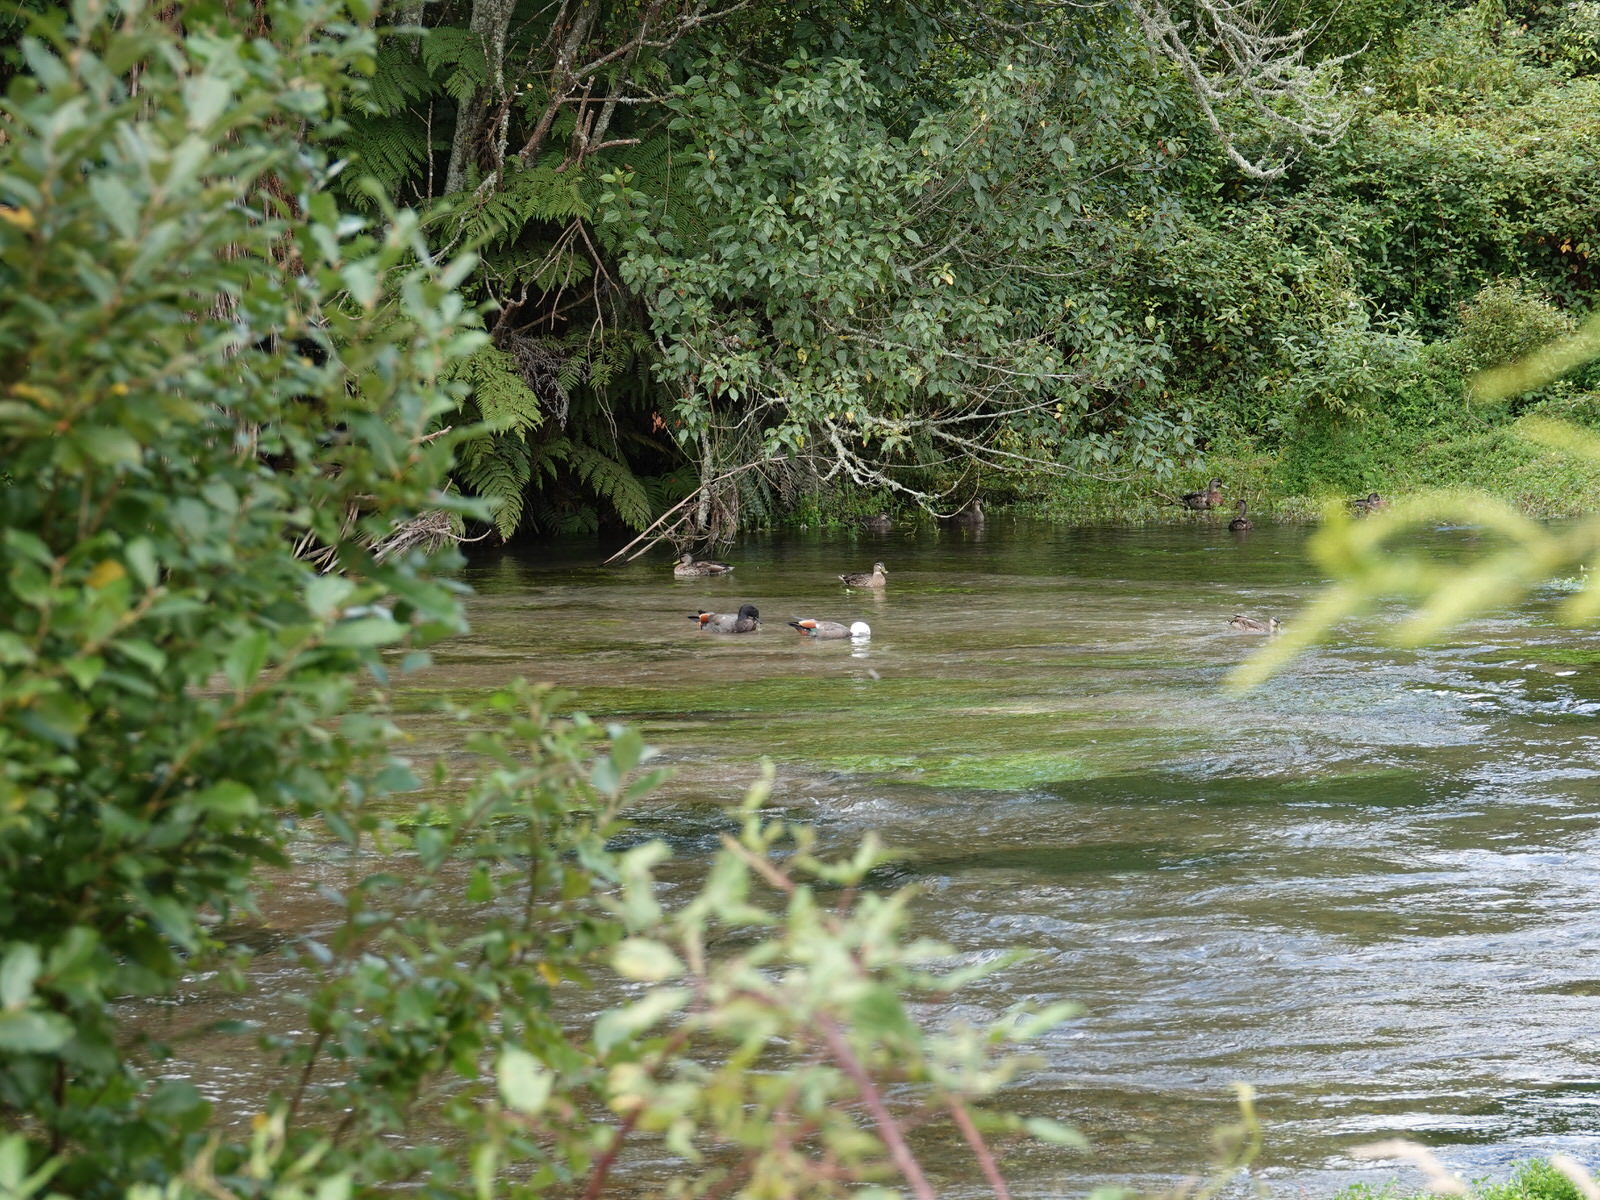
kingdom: Animalia
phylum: Chordata
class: Aves
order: Anseriformes
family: Anatidae
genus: Tadorna
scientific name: Tadorna variegata
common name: Paradise shelduck
